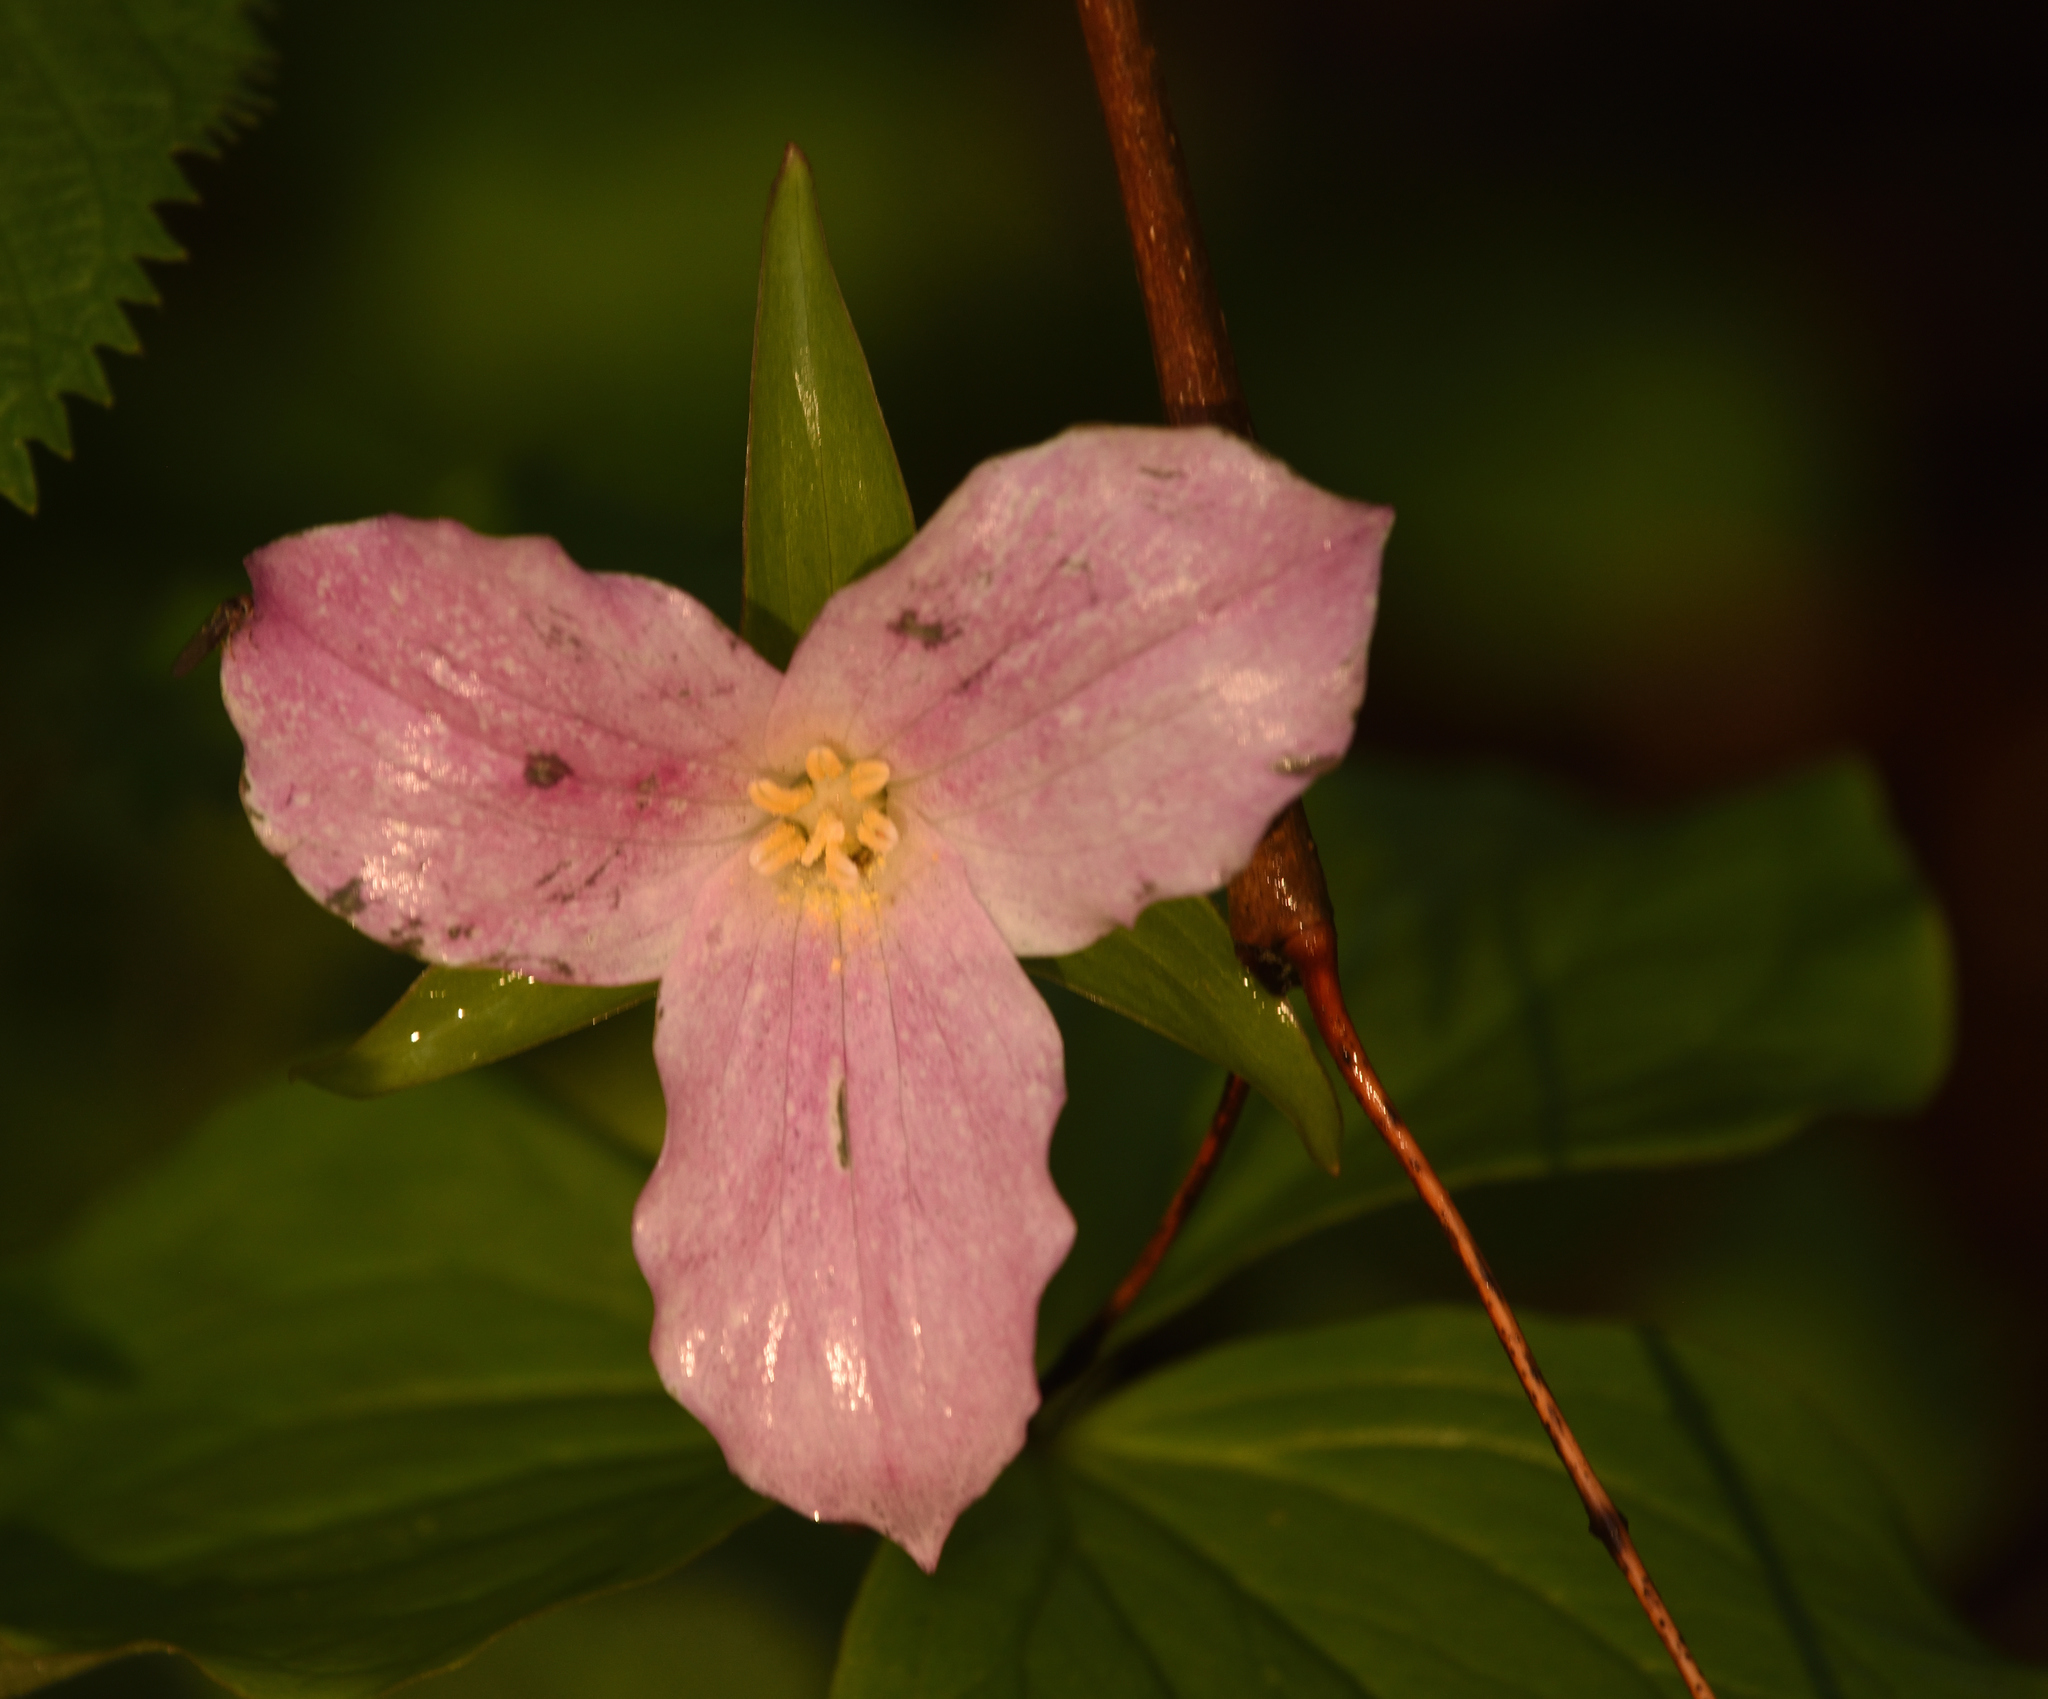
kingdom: Plantae
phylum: Tracheophyta
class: Liliopsida
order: Liliales
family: Melanthiaceae
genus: Trillium
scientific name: Trillium grandiflorum
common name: Great white trillium
